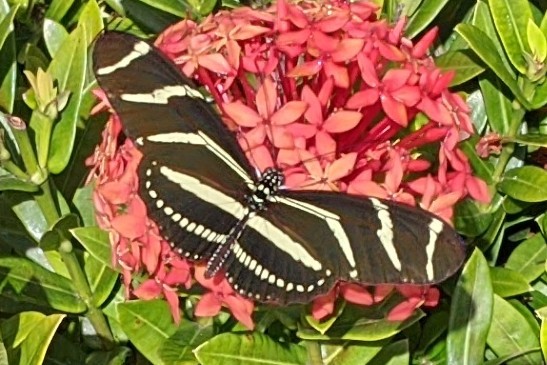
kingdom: Animalia
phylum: Arthropoda
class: Insecta
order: Lepidoptera
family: Nymphalidae
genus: Heliconius
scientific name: Heliconius charithonia
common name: Zebra long wing
